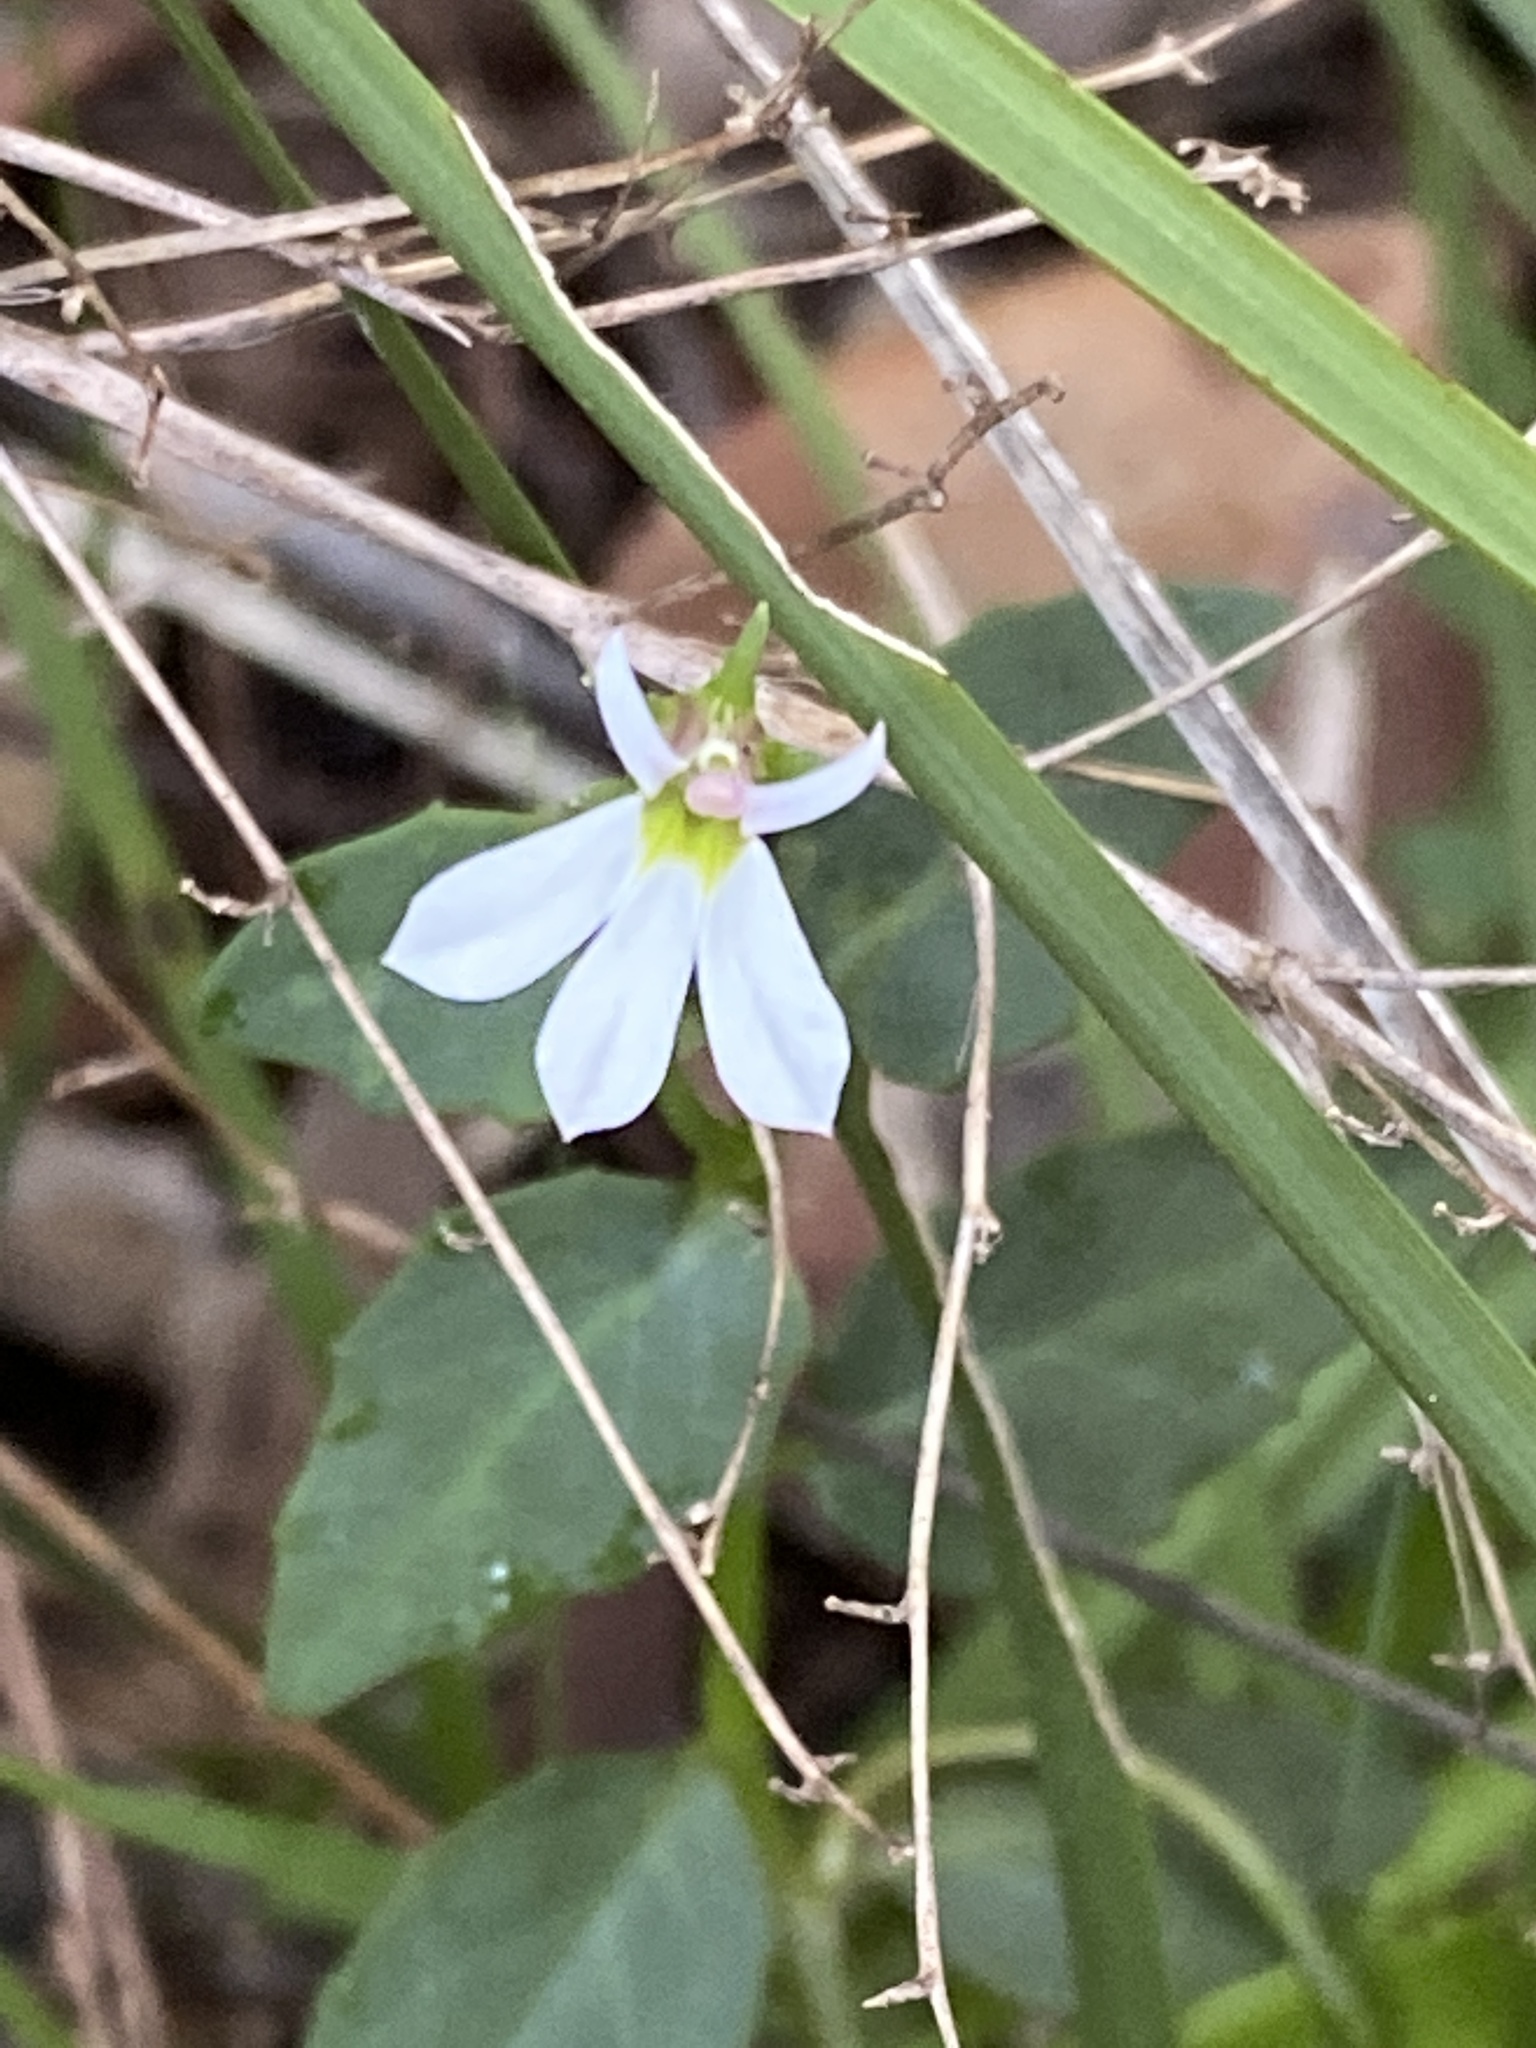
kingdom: Plantae
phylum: Tracheophyta
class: Magnoliopsida
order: Asterales
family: Campanulaceae
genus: Lobelia
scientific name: Lobelia purpurascens
